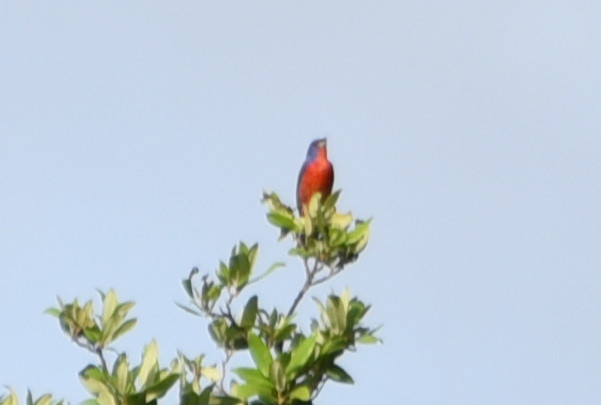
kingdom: Animalia
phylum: Chordata
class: Aves
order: Passeriformes
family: Cardinalidae
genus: Passerina
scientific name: Passerina ciris
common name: Painted bunting
